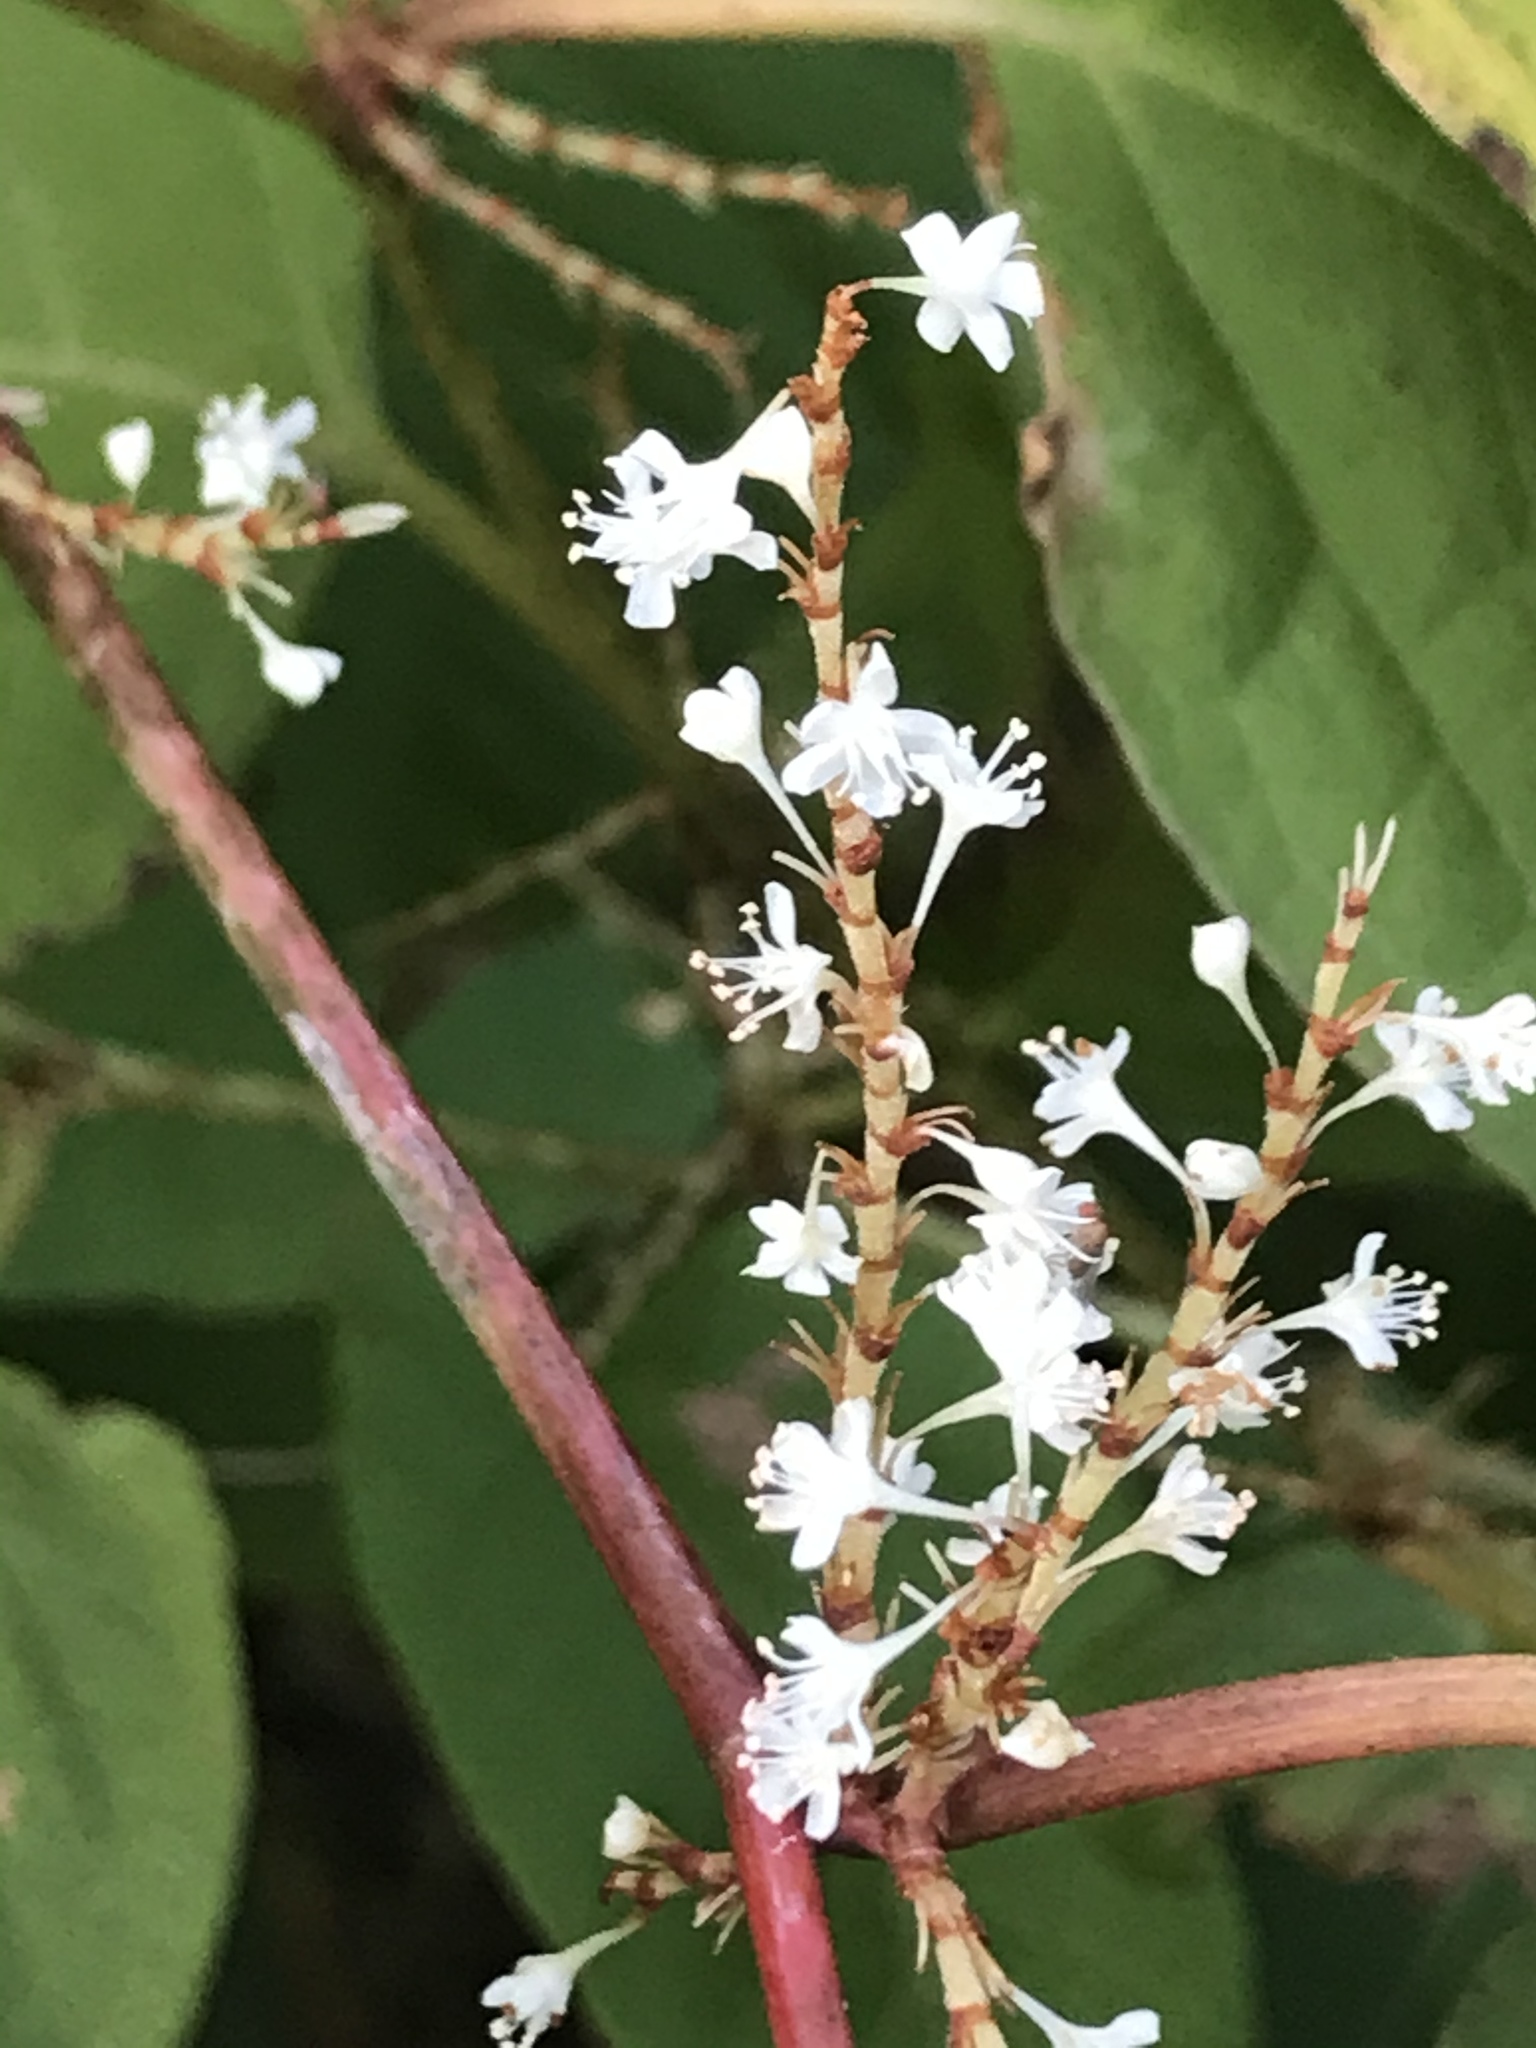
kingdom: Plantae
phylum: Tracheophyta
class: Magnoliopsida
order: Caryophyllales
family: Polygonaceae
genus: Reynoutria
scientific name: Reynoutria japonica
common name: Japanese knotweed
